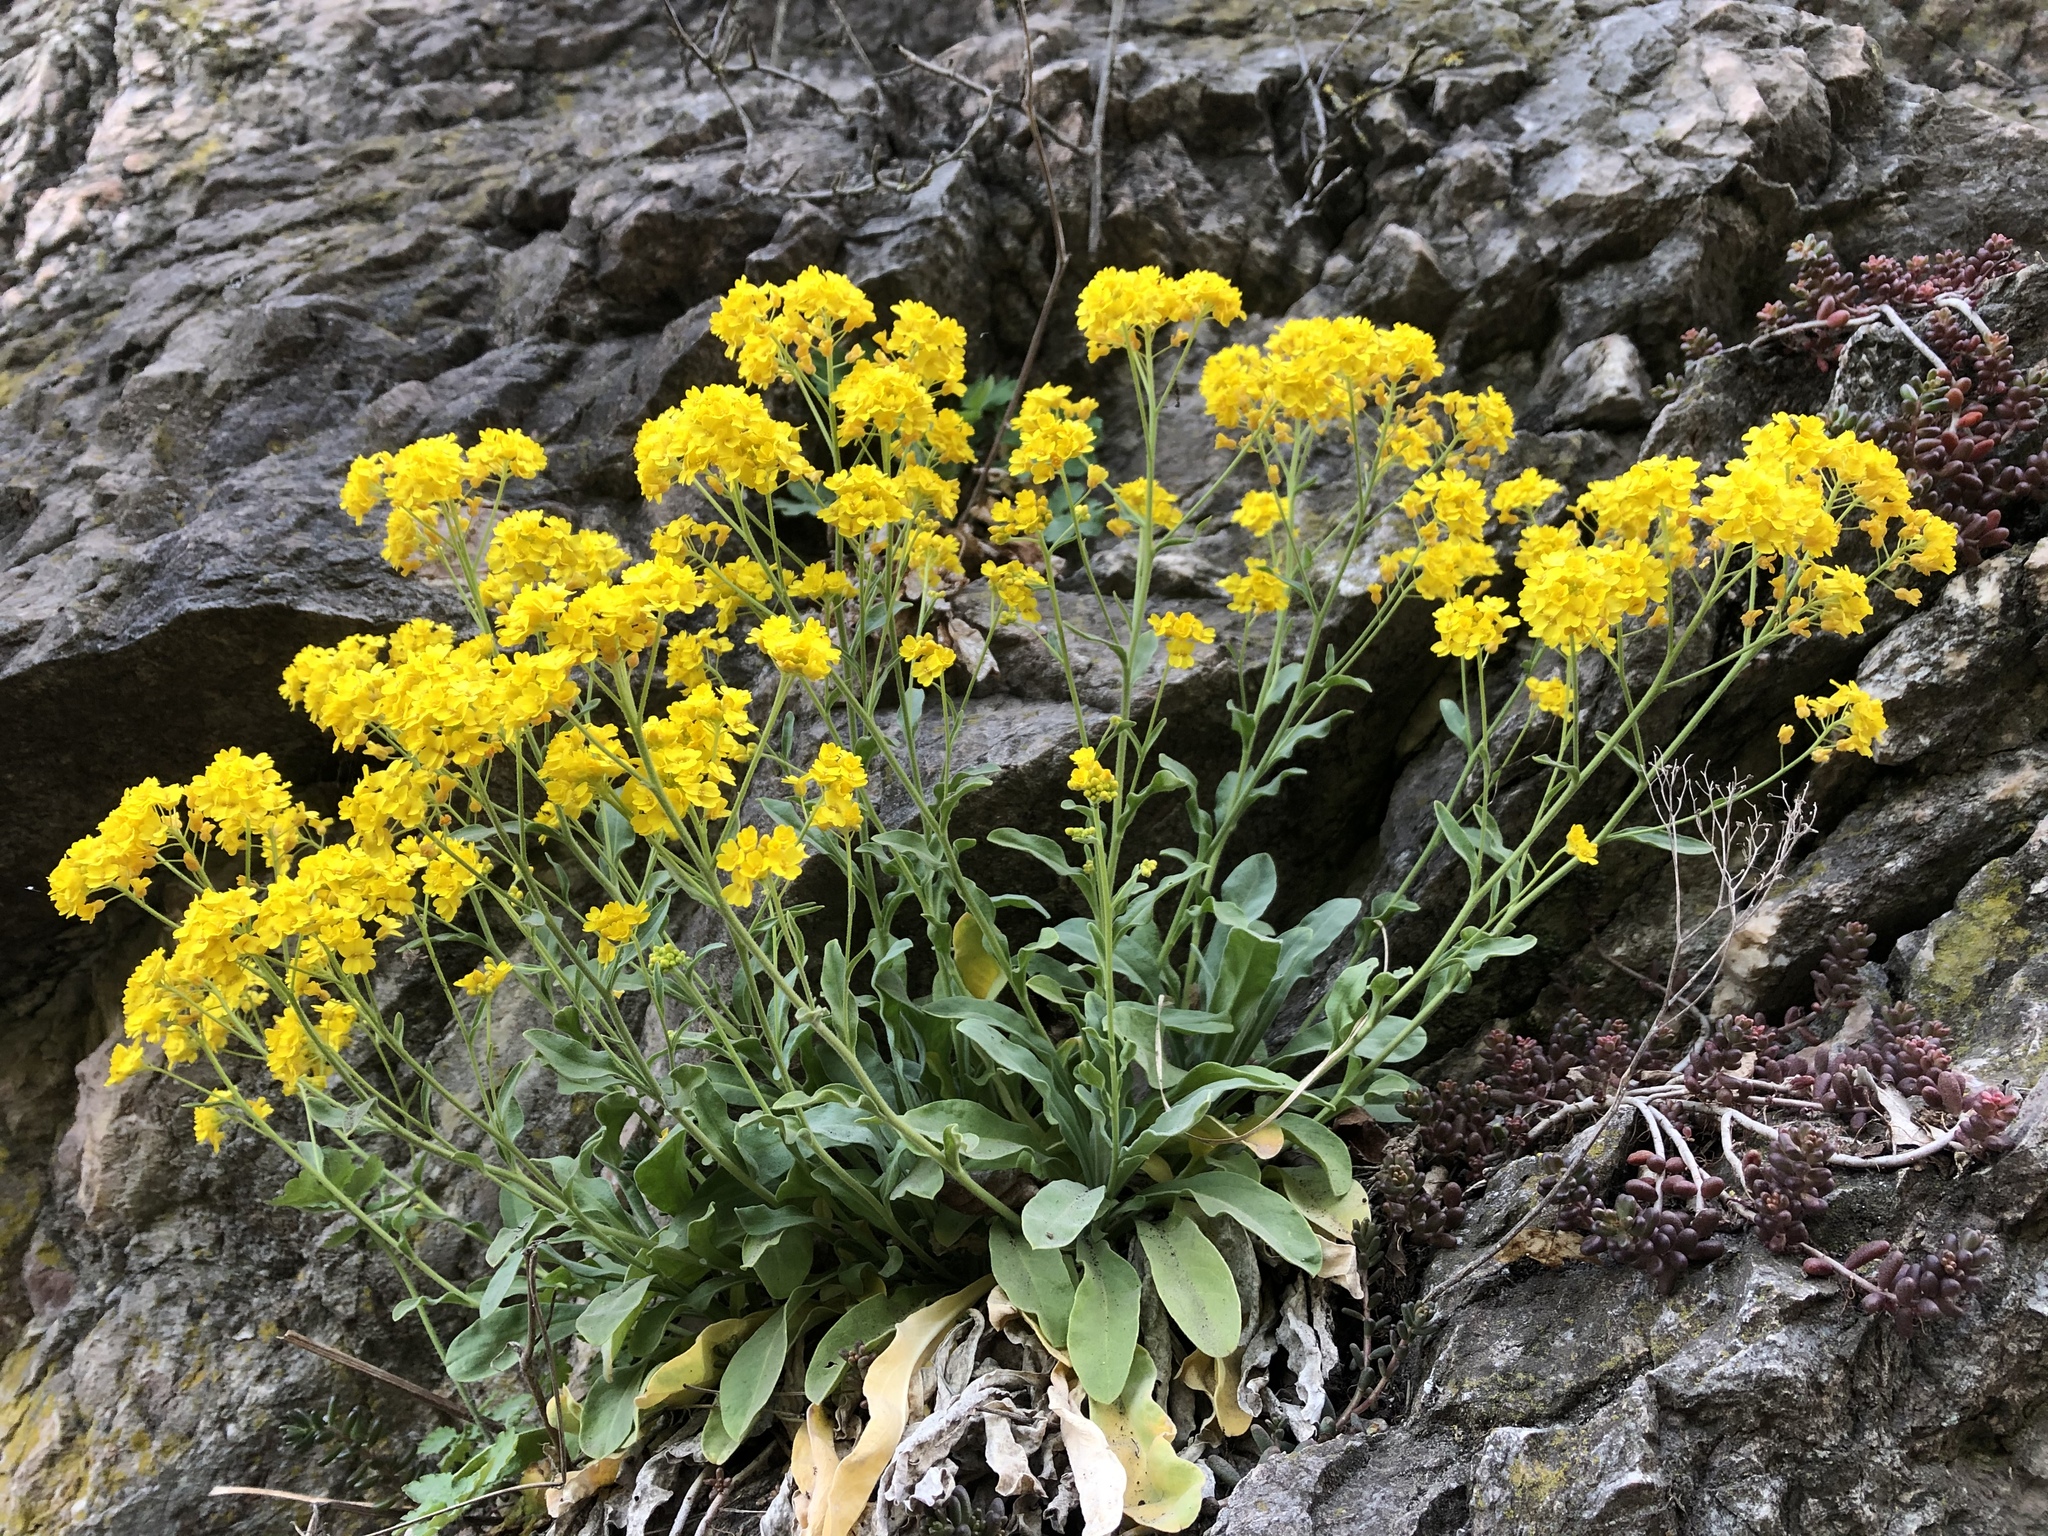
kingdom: Plantae
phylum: Tracheophyta
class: Magnoliopsida
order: Brassicales
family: Brassicaceae
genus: Aurinia
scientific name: Aurinia saxatilis
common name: Golden-tuft alyssum
